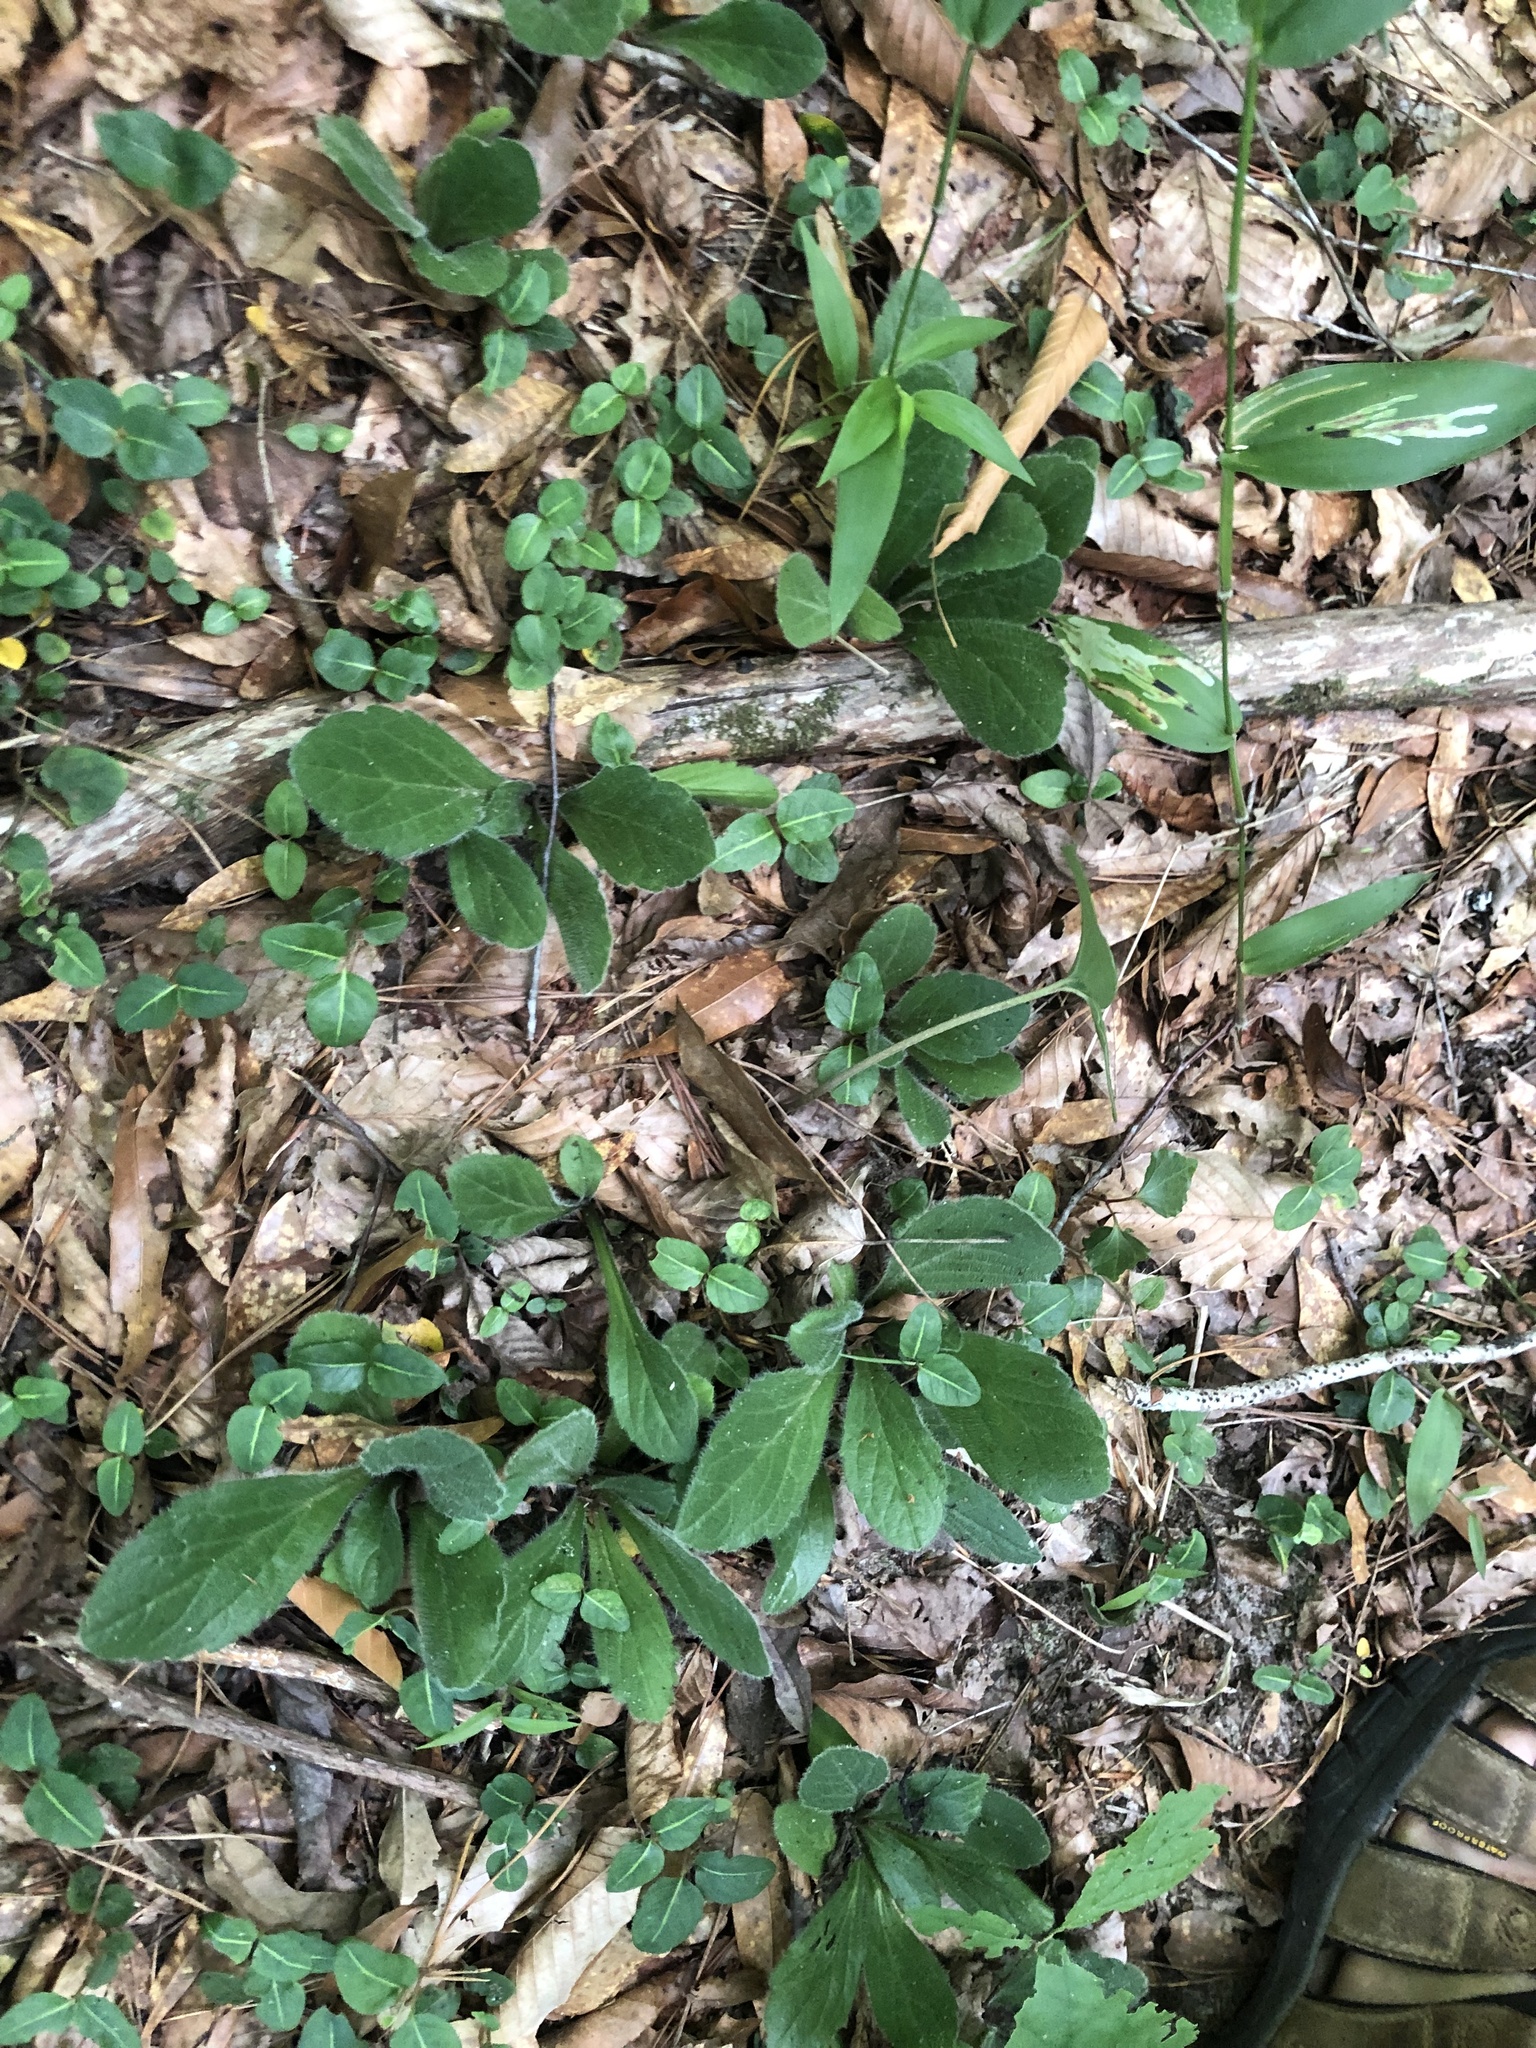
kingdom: Plantae
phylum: Tracheophyta
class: Magnoliopsida
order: Asterales
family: Asteraceae
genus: Erigeron
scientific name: Erigeron pulchellus
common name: Hairy fleabane
